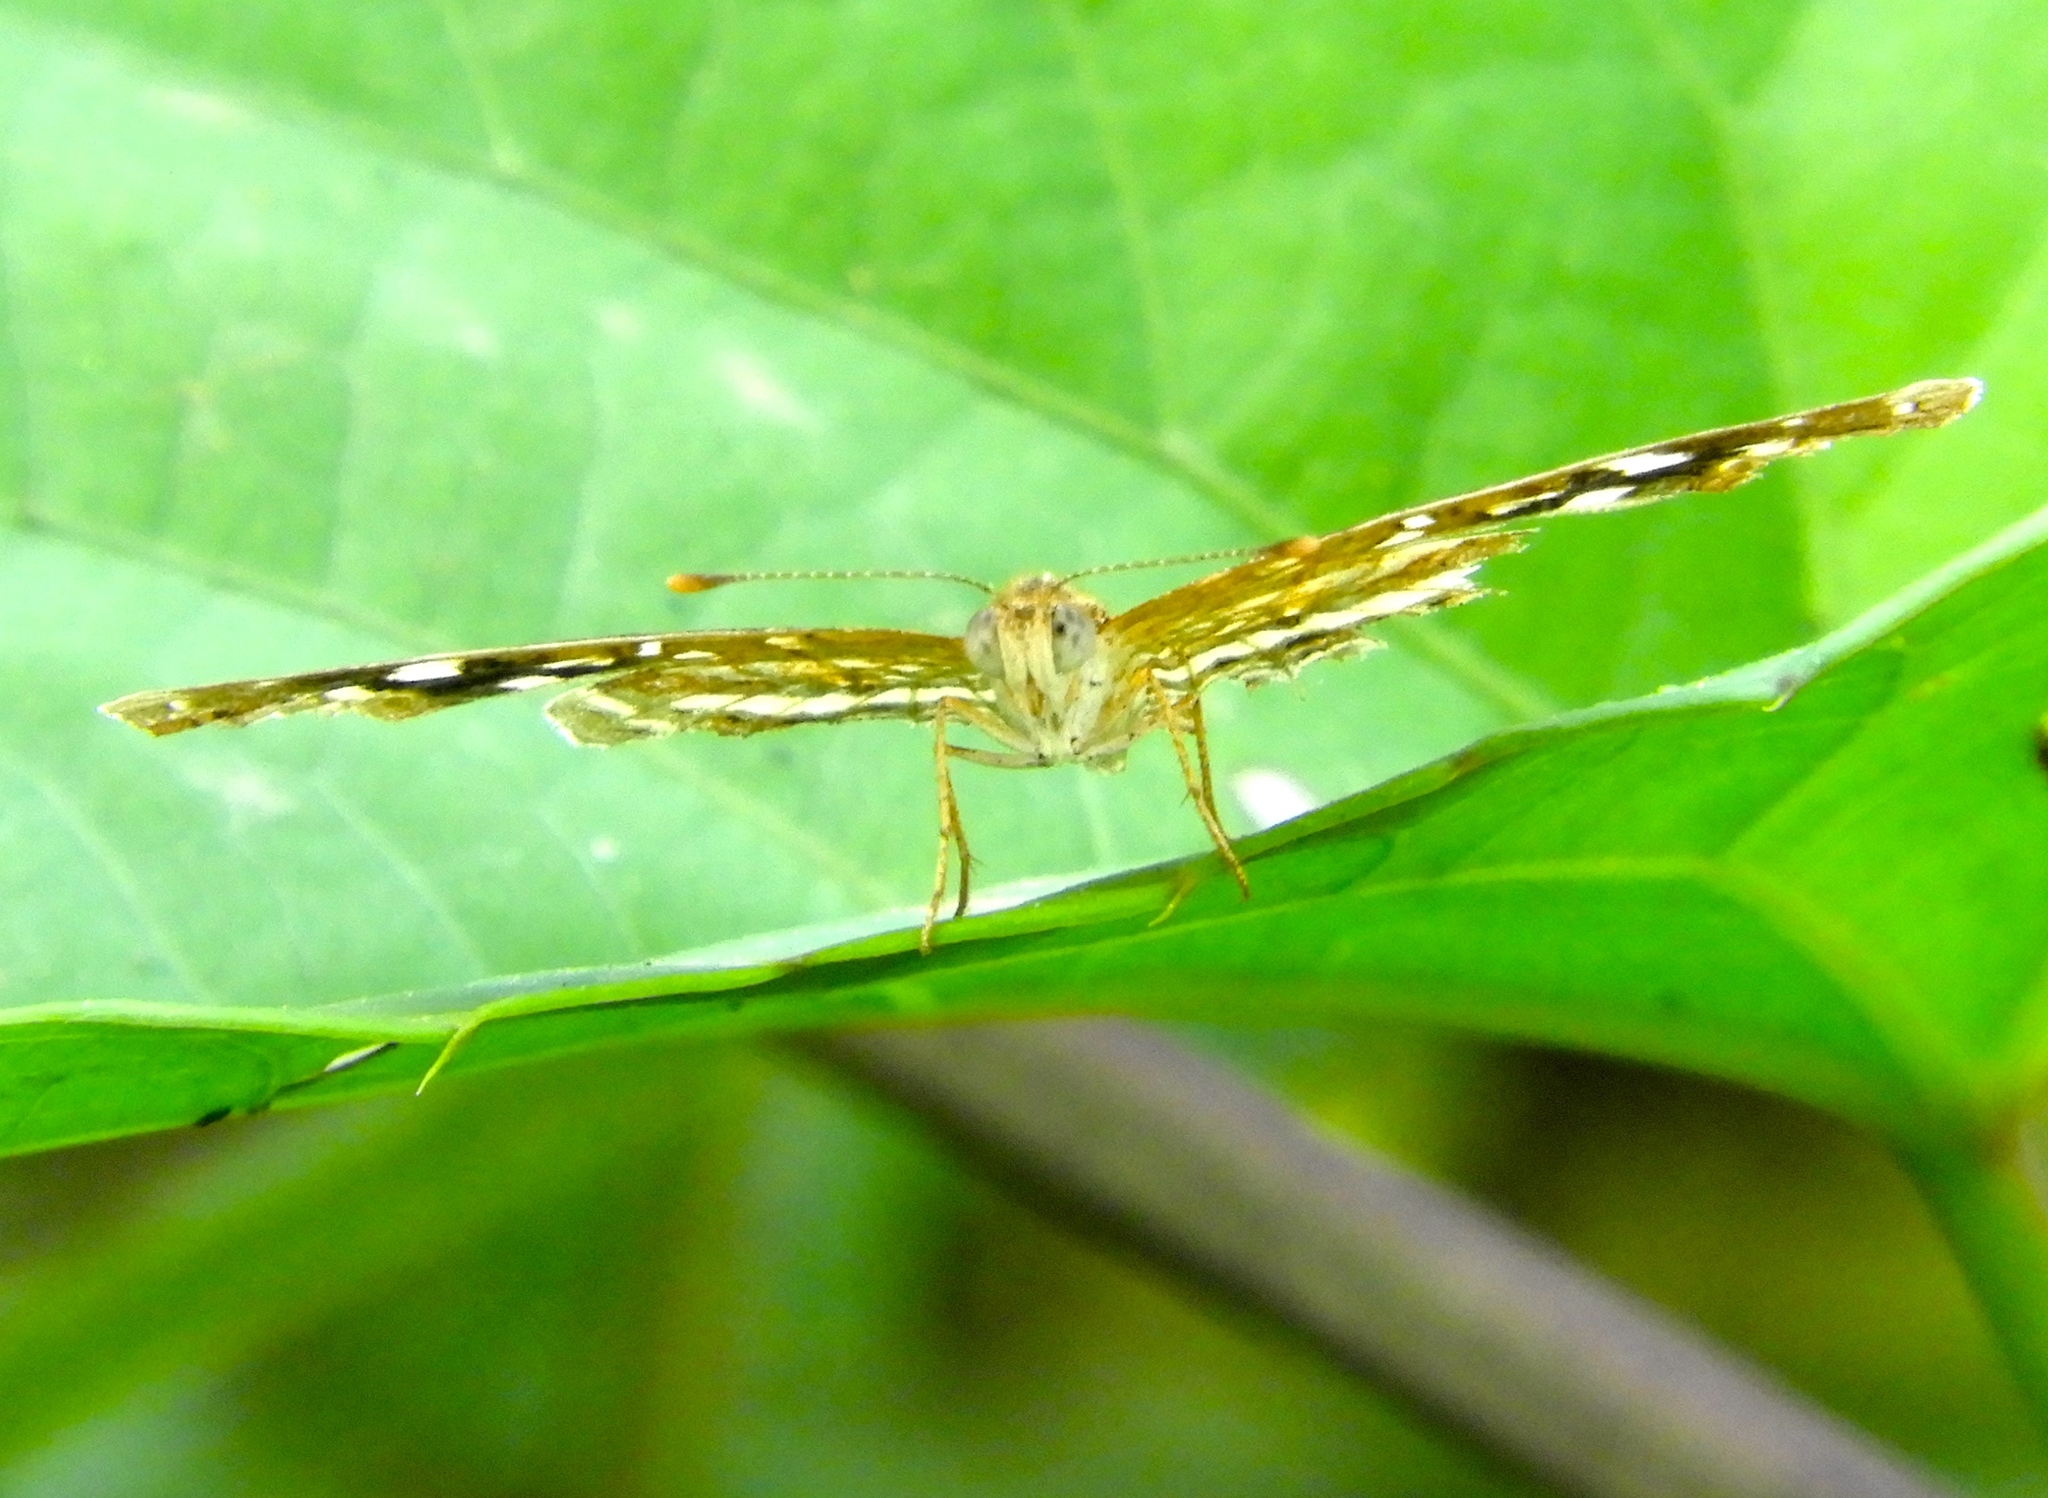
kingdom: Animalia
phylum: Arthropoda
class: Insecta
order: Lepidoptera
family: Nymphalidae
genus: Anthanassa
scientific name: Anthanassa tulcis
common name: Pale-banded crescent
